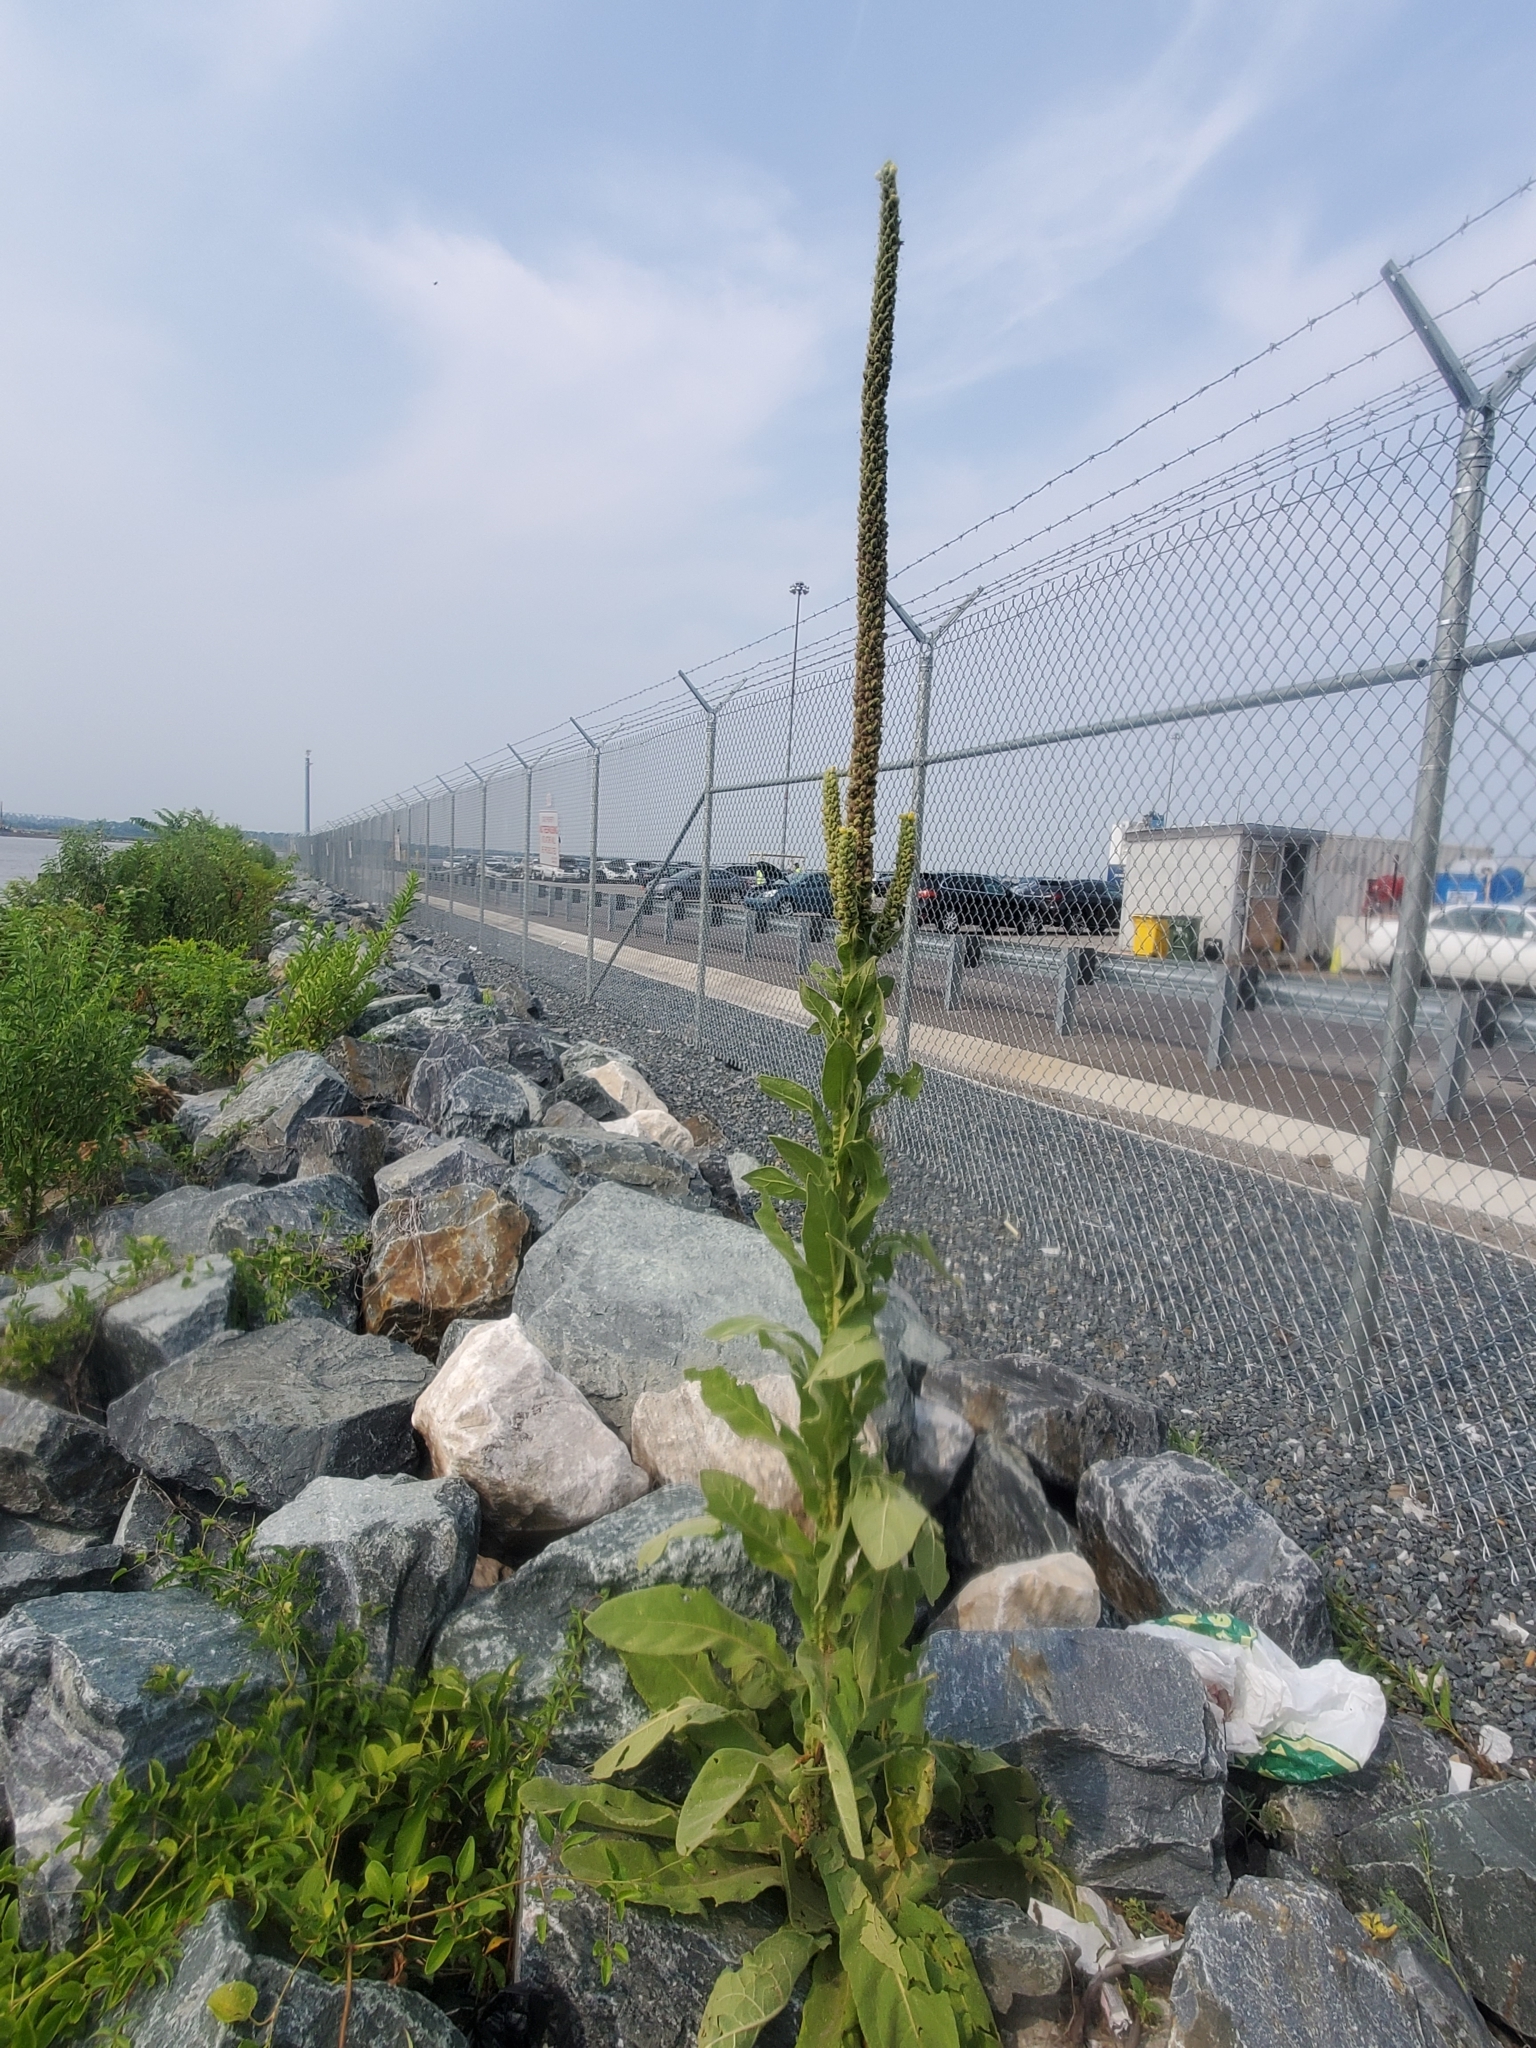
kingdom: Plantae
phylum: Tracheophyta
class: Magnoliopsida
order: Lamiales
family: Scrophulariaceae
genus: Verbascum
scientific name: Verbascum thapsus
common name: Common mullein
